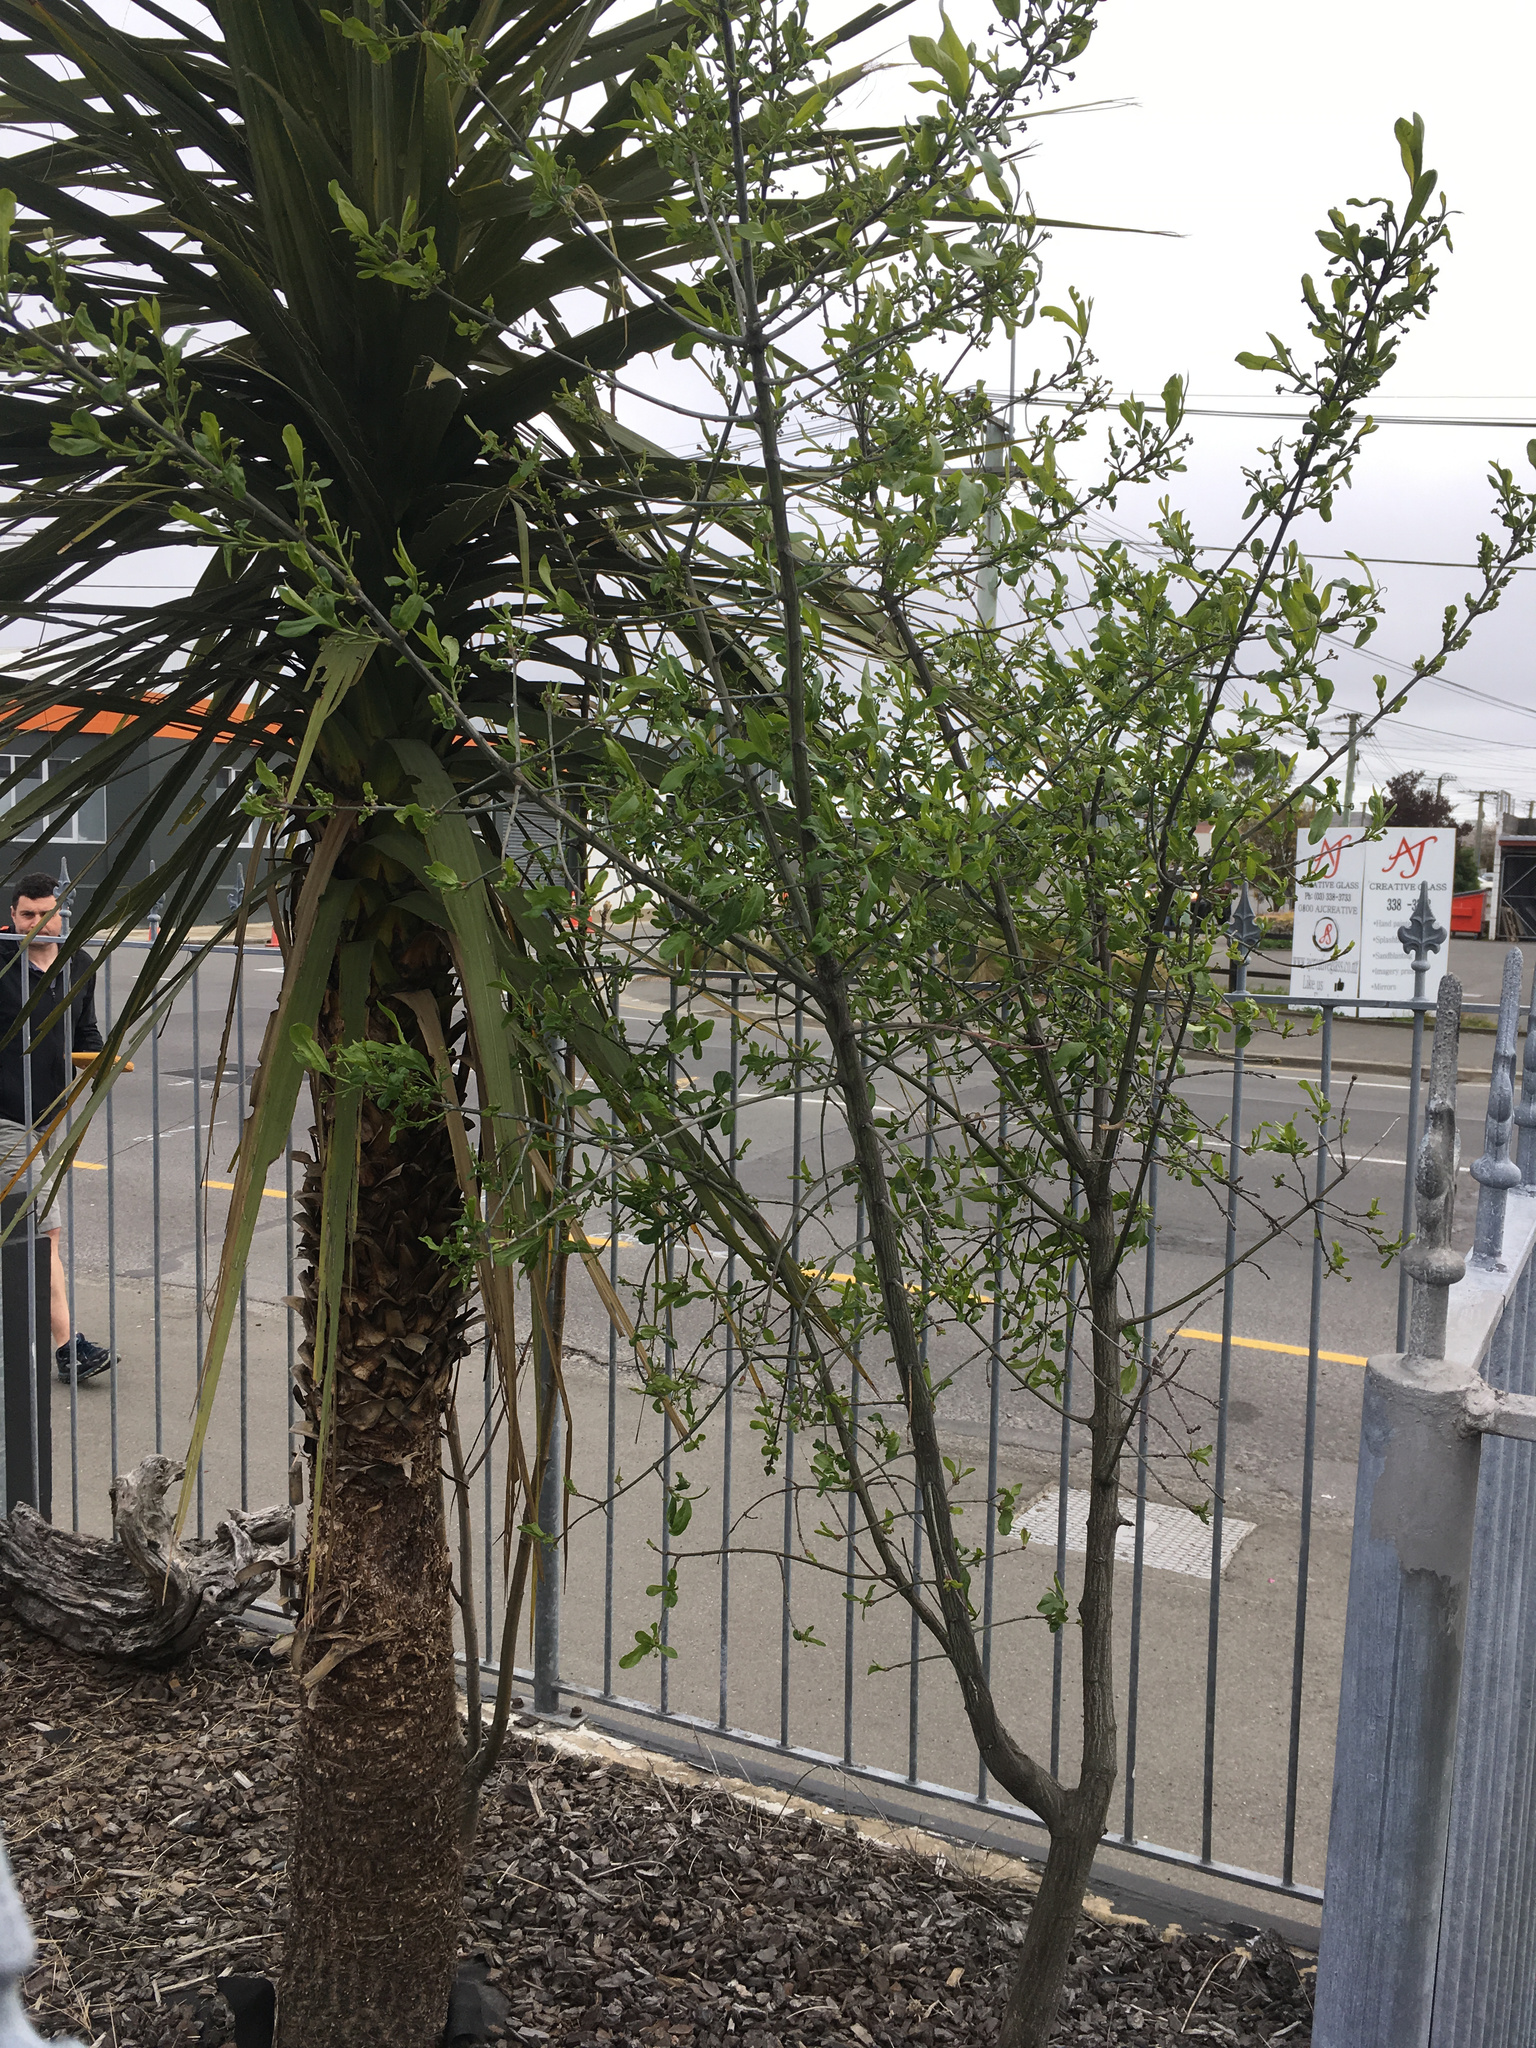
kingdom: Plantae
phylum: Tracheophyta
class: Magnoliopsida
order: Celastrales
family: Celastraceae
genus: Euonymus
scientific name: Euonymus europaeus
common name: Spindle
